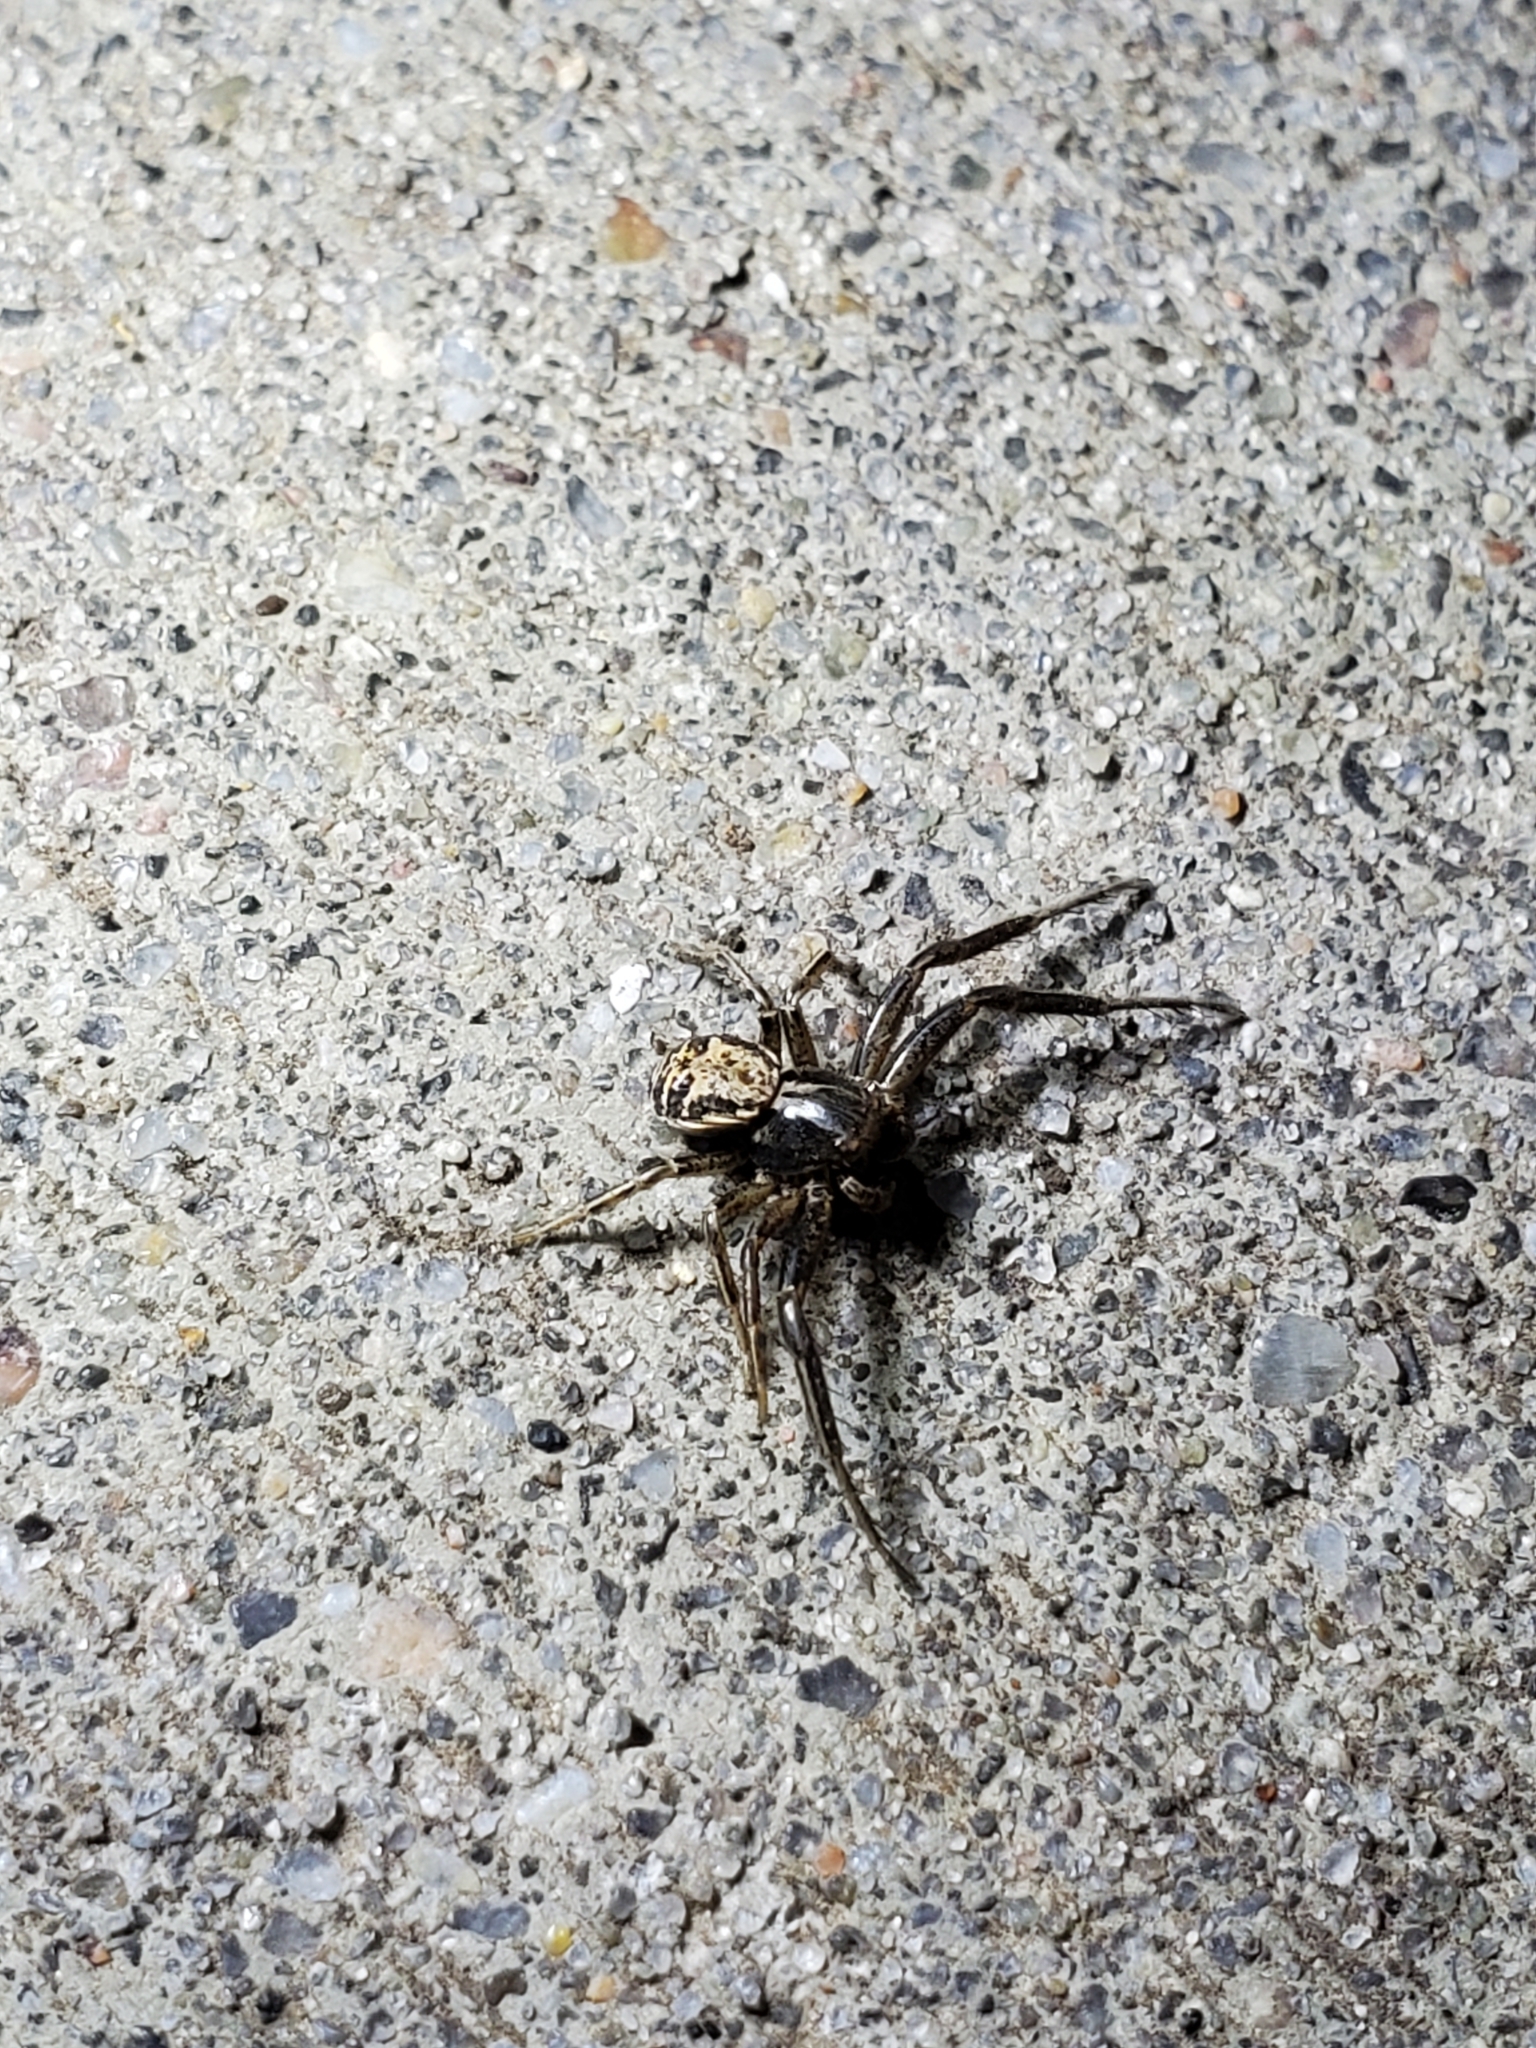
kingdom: Animalia
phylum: Arthropoda
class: Arachnida
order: Araneae
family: Thomisidae
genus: Xysticus
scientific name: Xysticus
